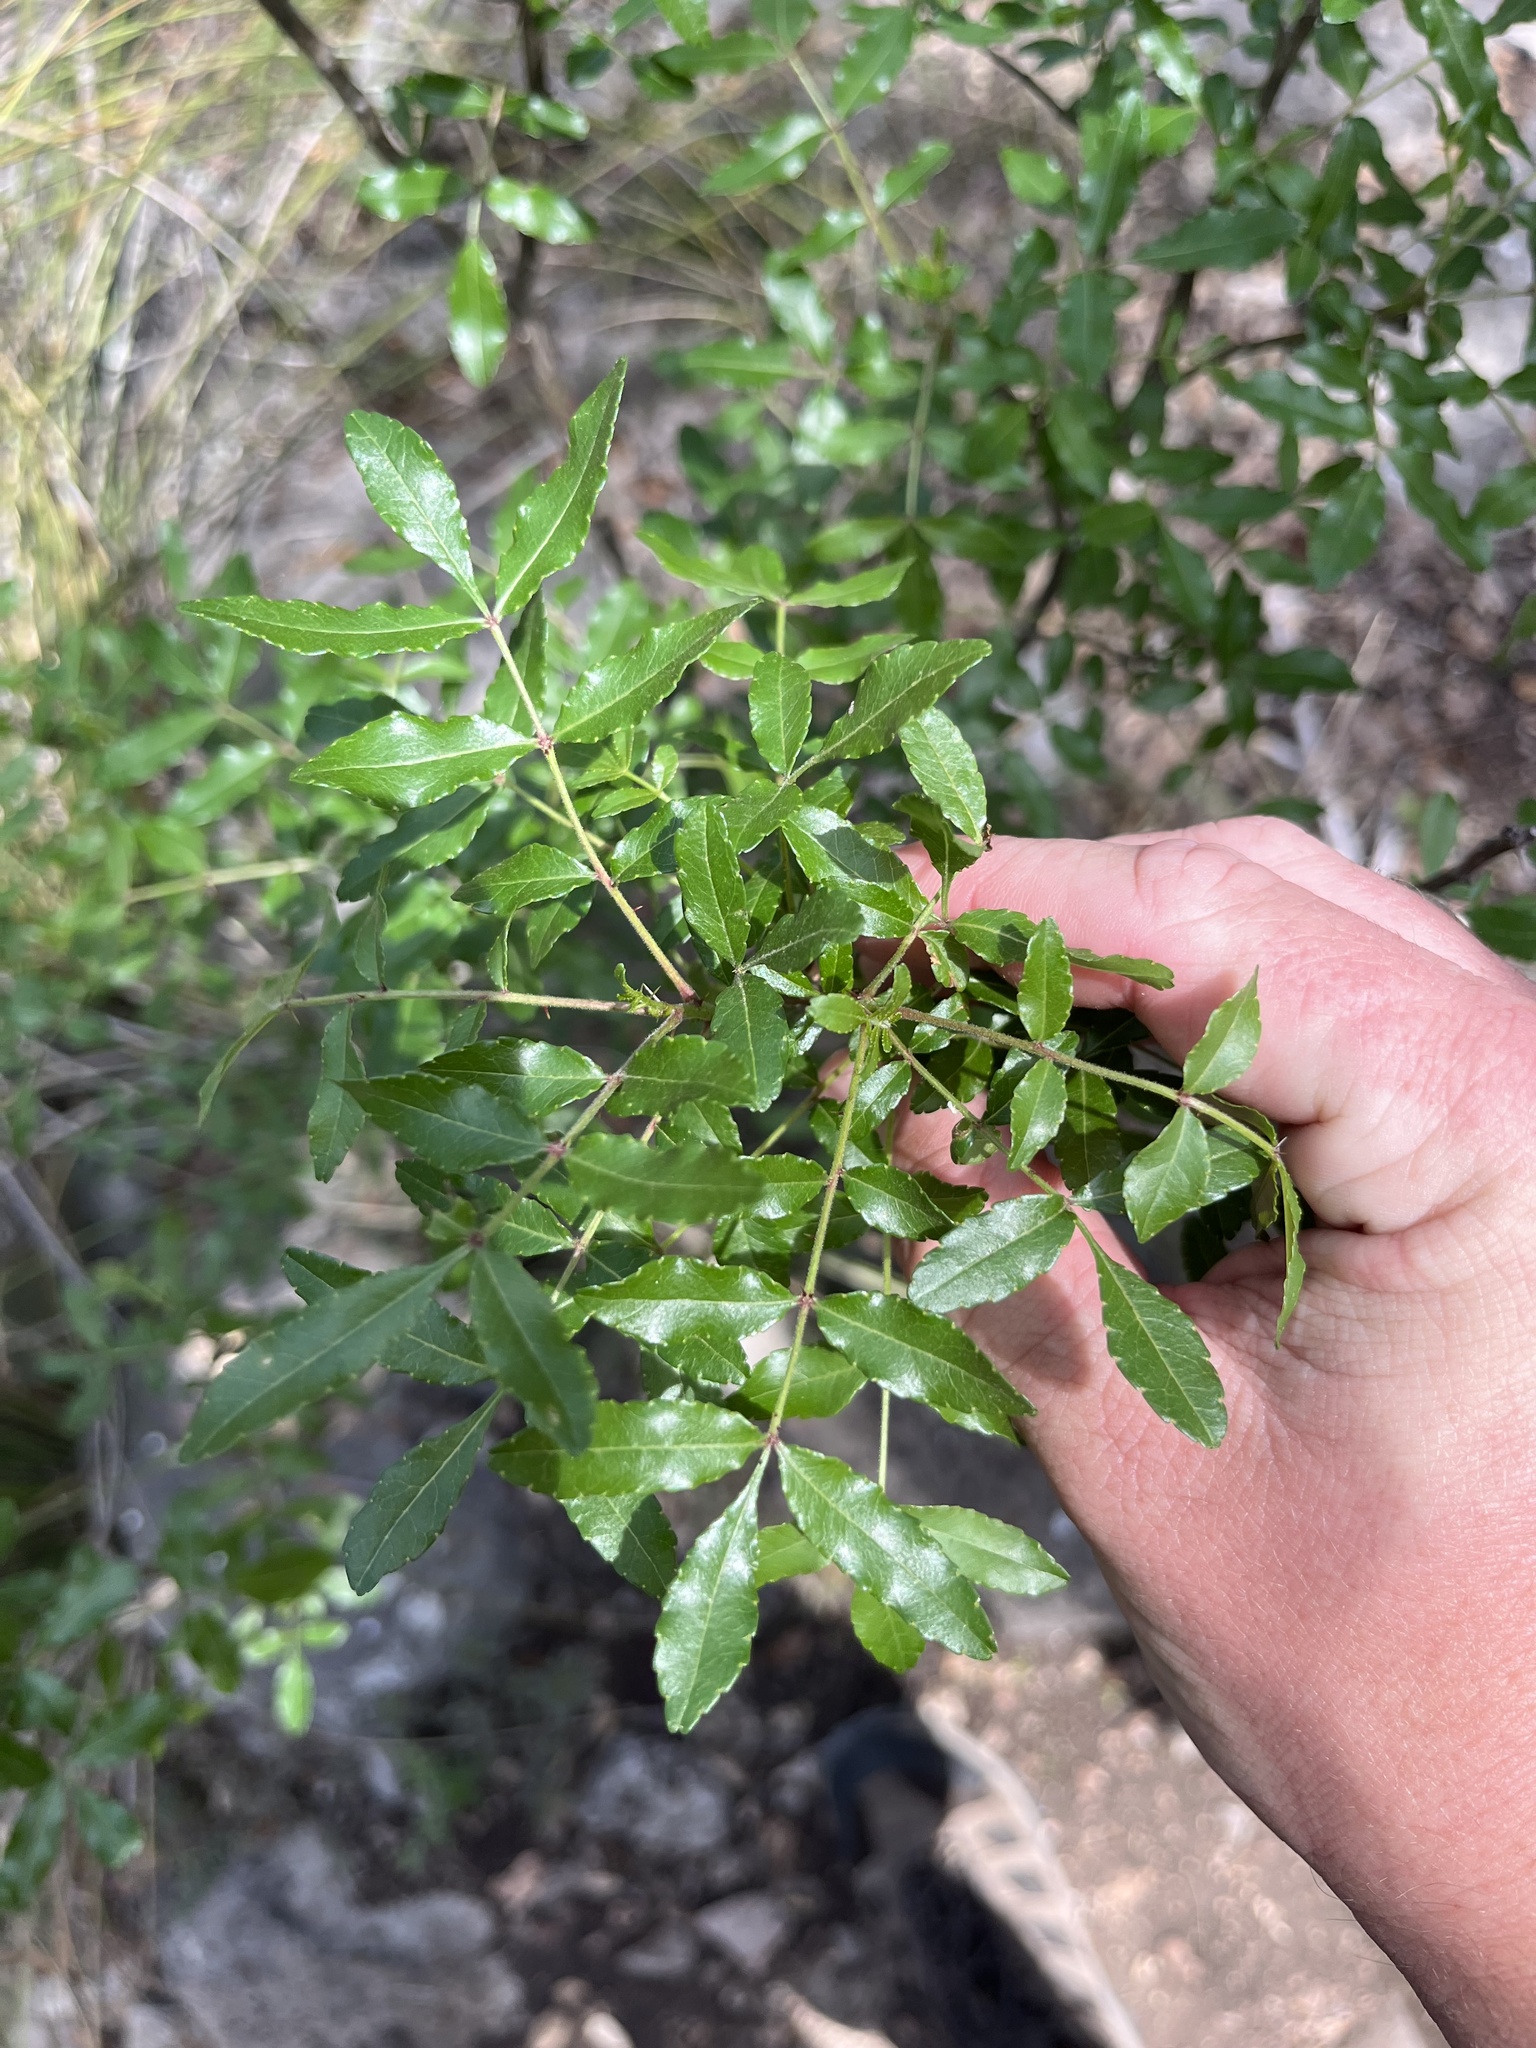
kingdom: Plantae
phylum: Tracheophyta
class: Magnoliopsida
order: Sapindales
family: Rutaceae
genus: Zanthoxylum
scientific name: Zanthoxylum clava-herculis
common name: Hercules'-club
